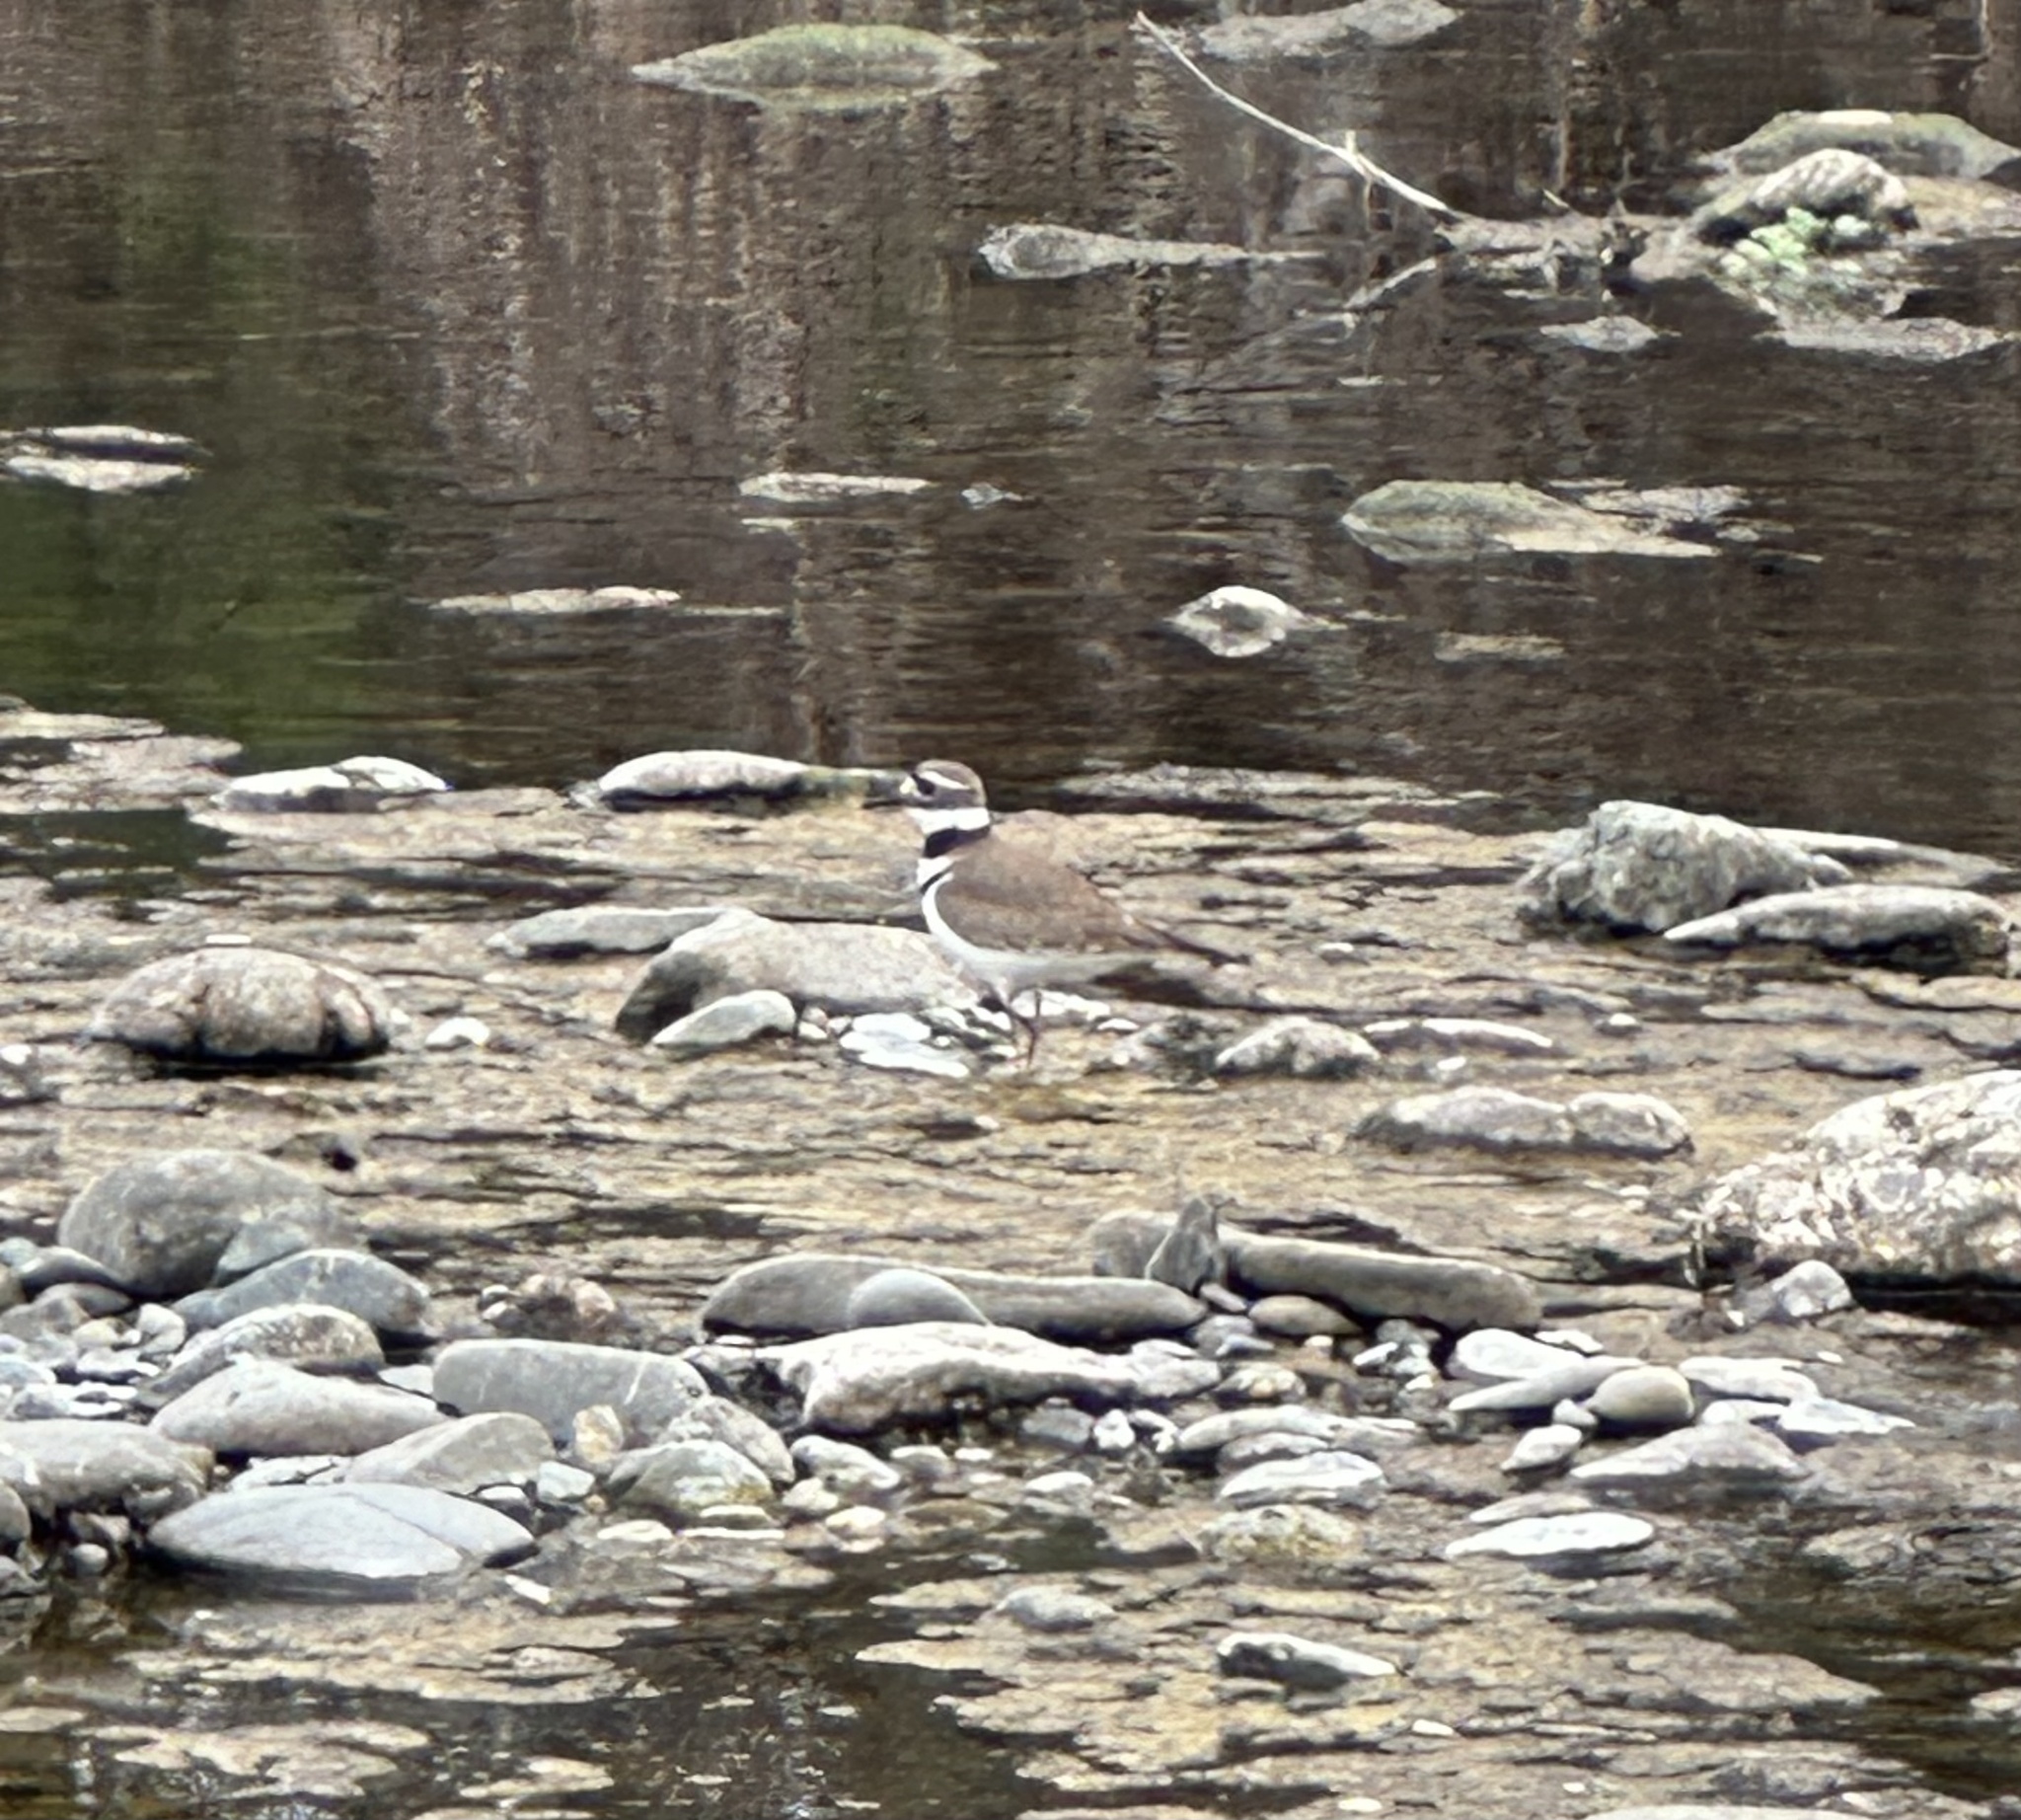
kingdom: Animalia
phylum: Chordata
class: Aves
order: Charadriiformes
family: Charadriidae
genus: Charadrius
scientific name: Charadrius vociferus
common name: Killdeer
